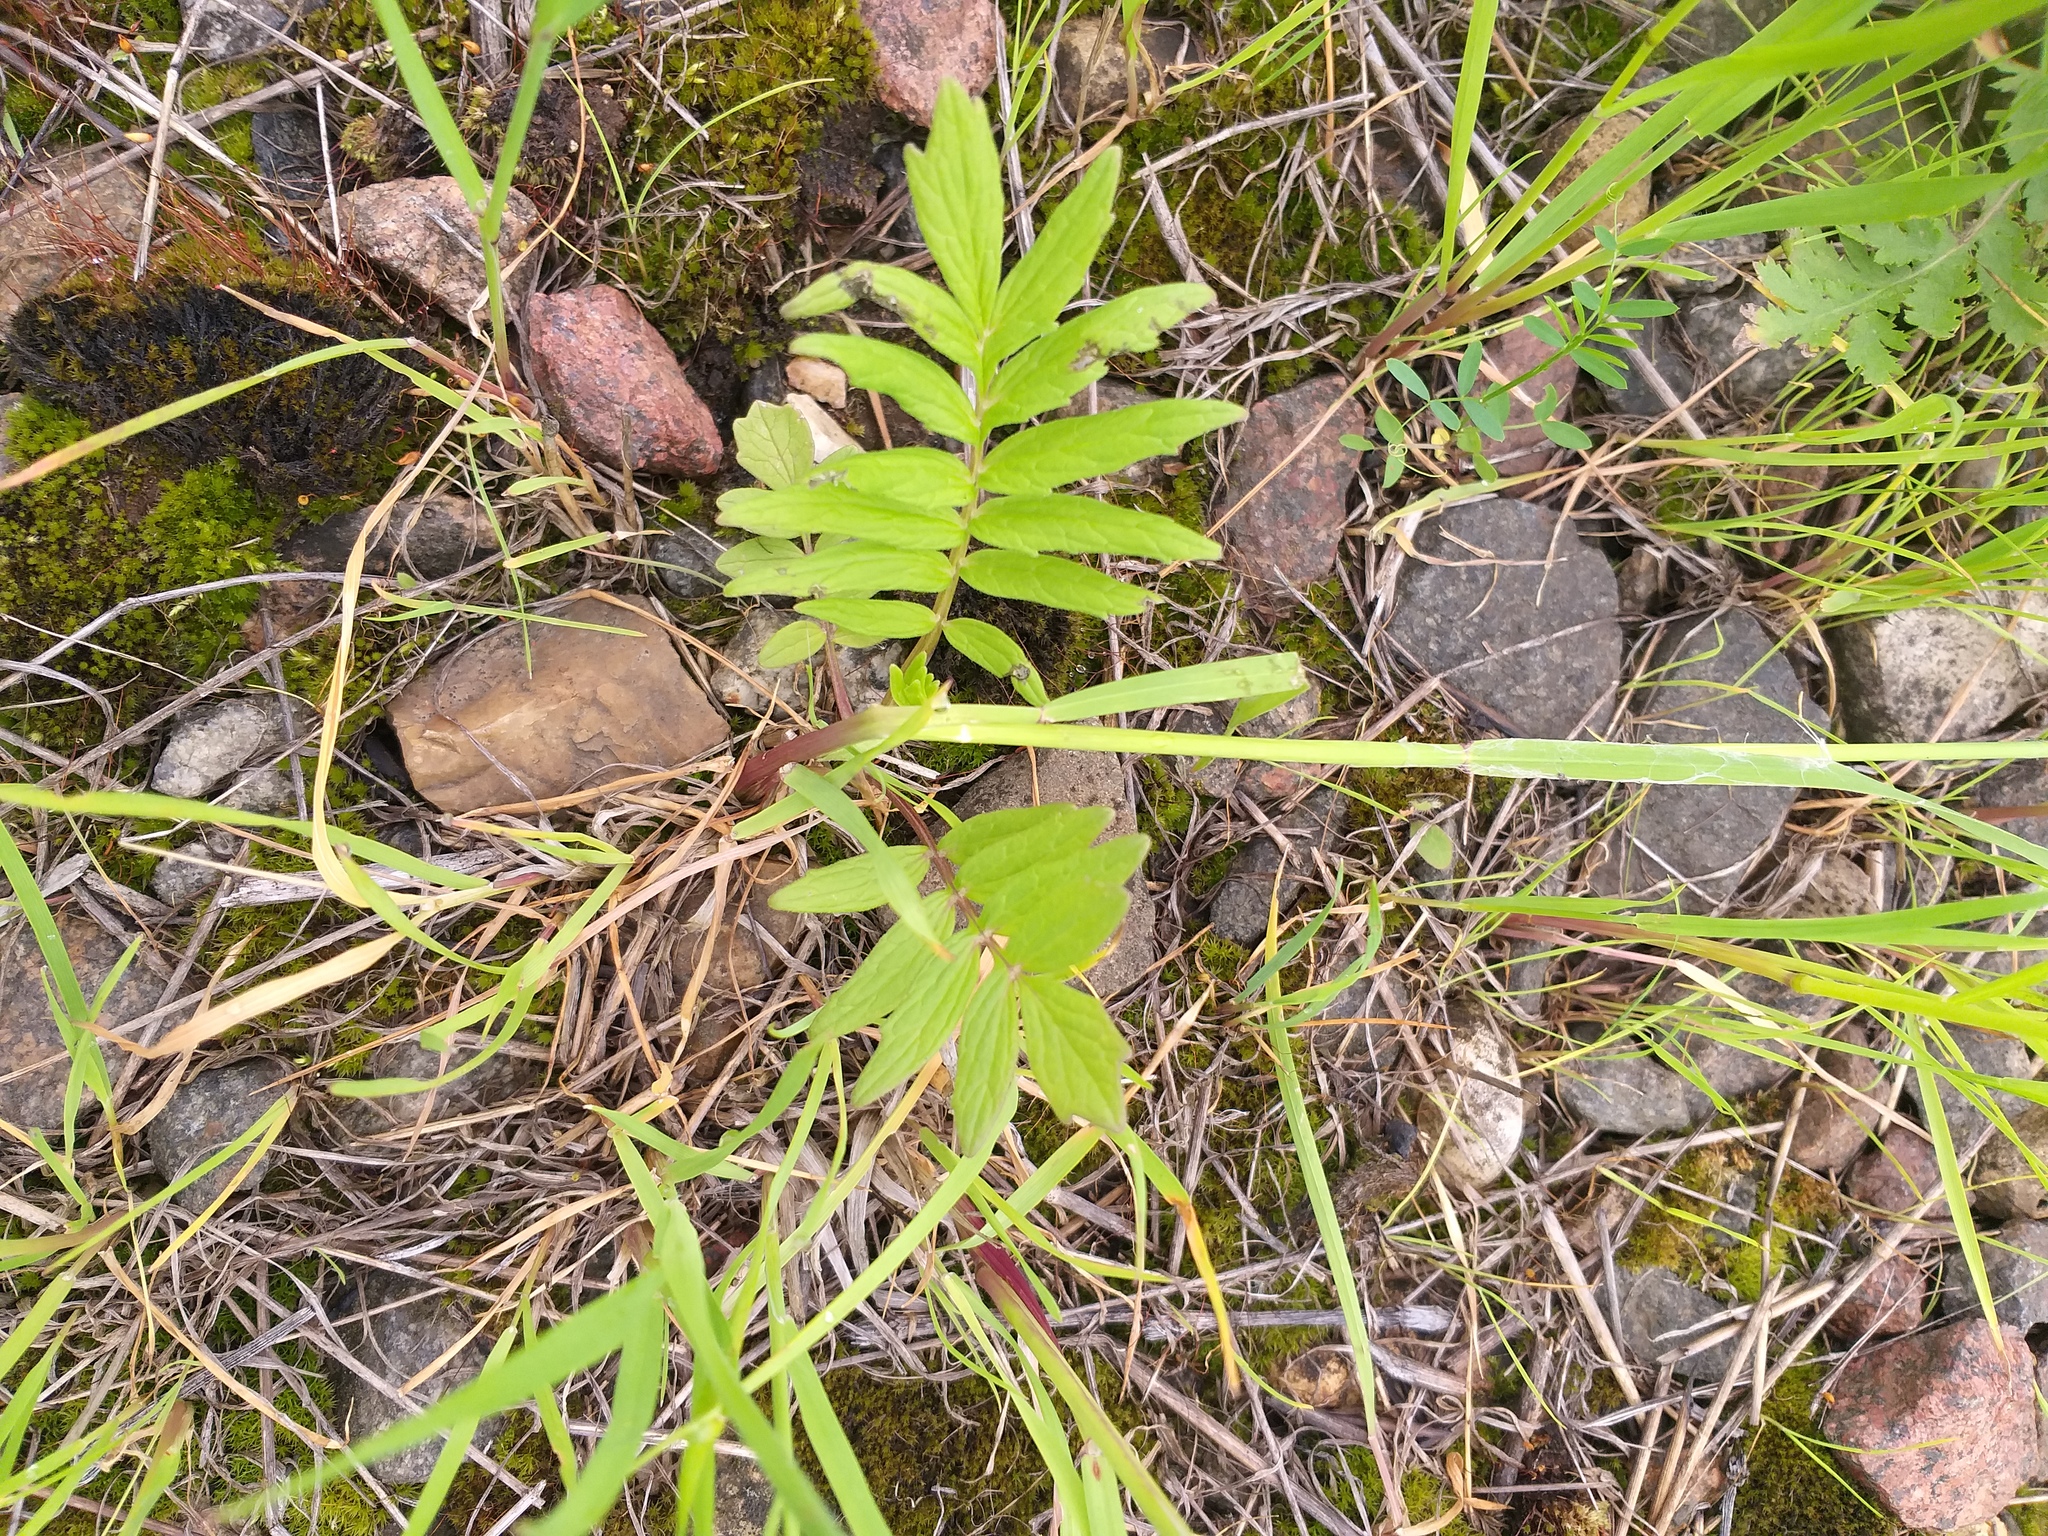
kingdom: Plantae
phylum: Tracheophyta
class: Magnoliopsida
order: Dipsacales
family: Caprifoliaceae
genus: Valeriana
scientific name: Valeriana officinalis
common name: Common valerian
